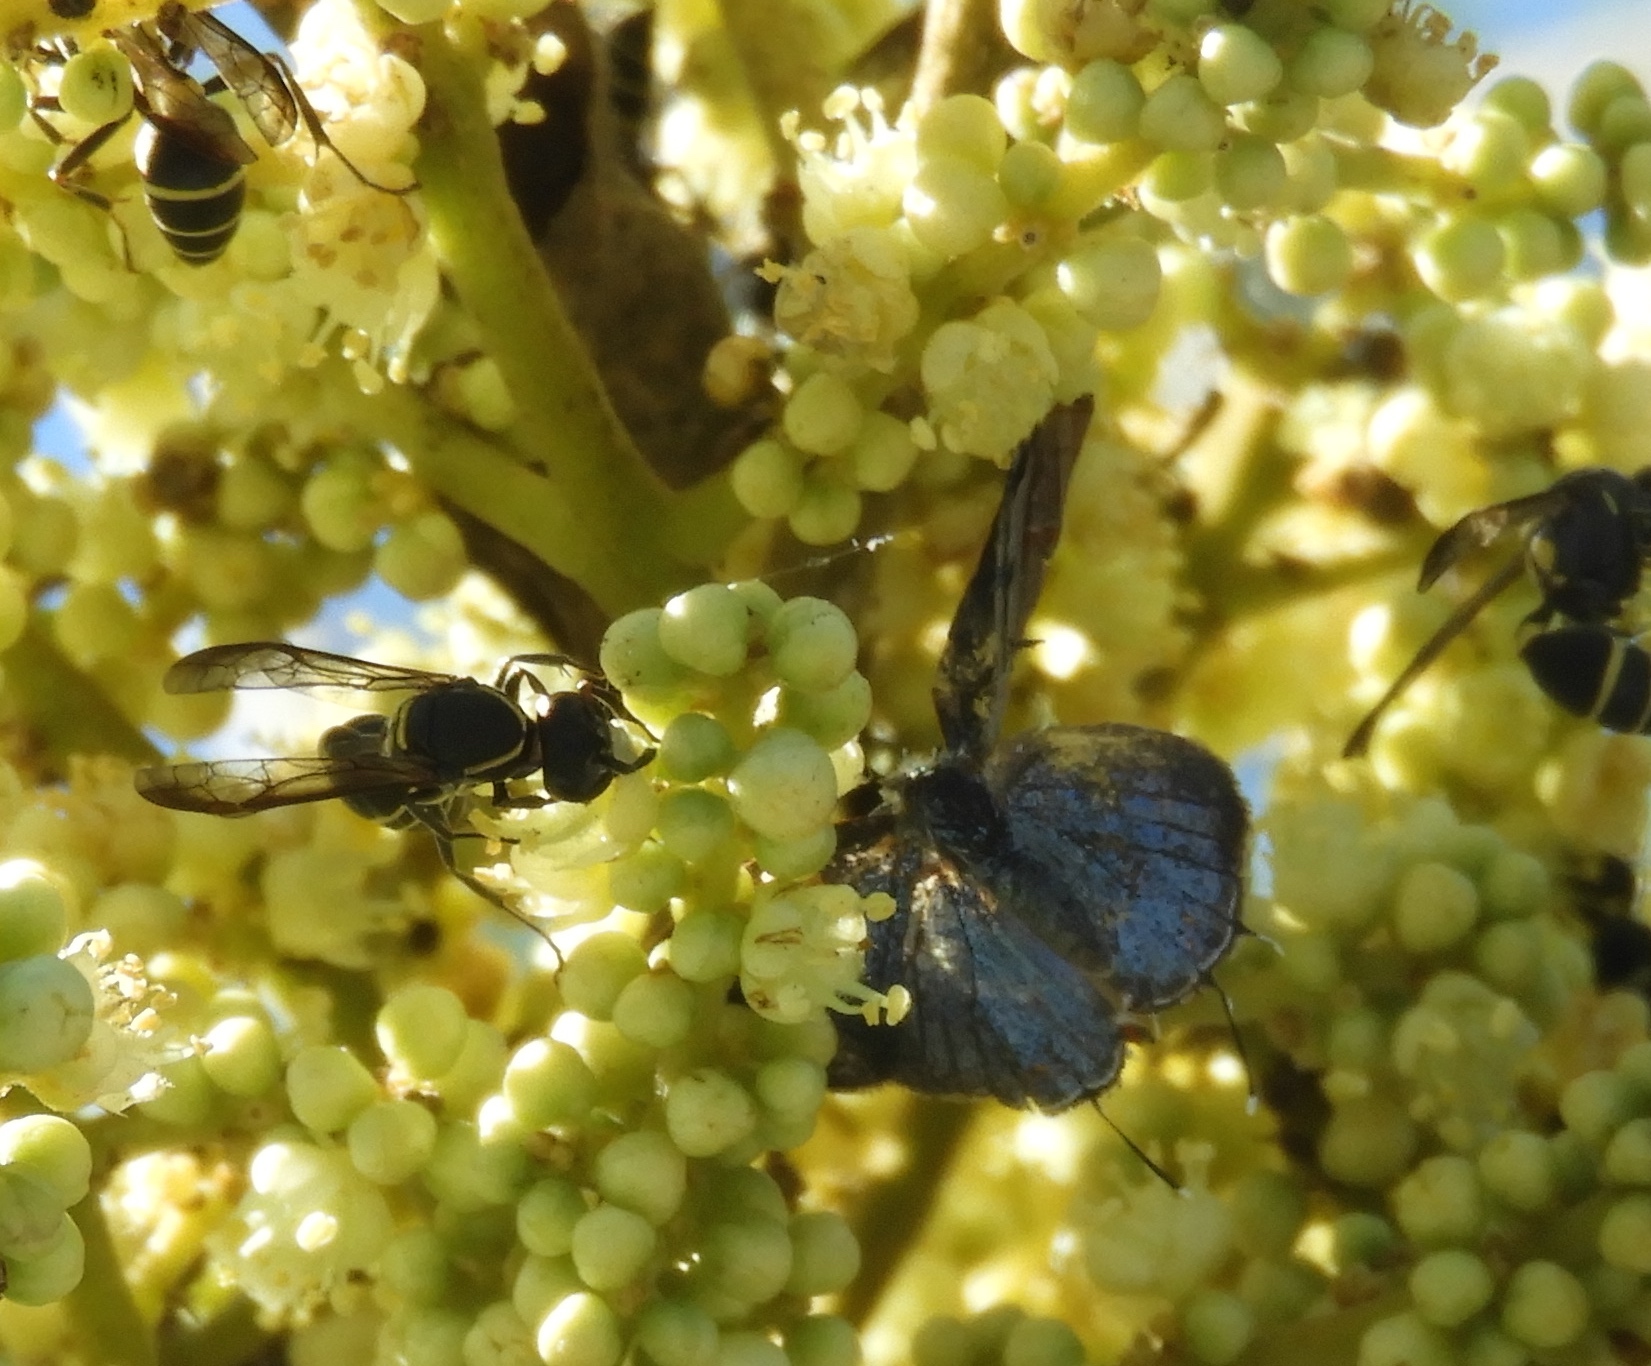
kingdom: Animalia
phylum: Arthropoda
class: Insecta
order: Lepidoptera
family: Lycaenidae
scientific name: Lycaenidae
